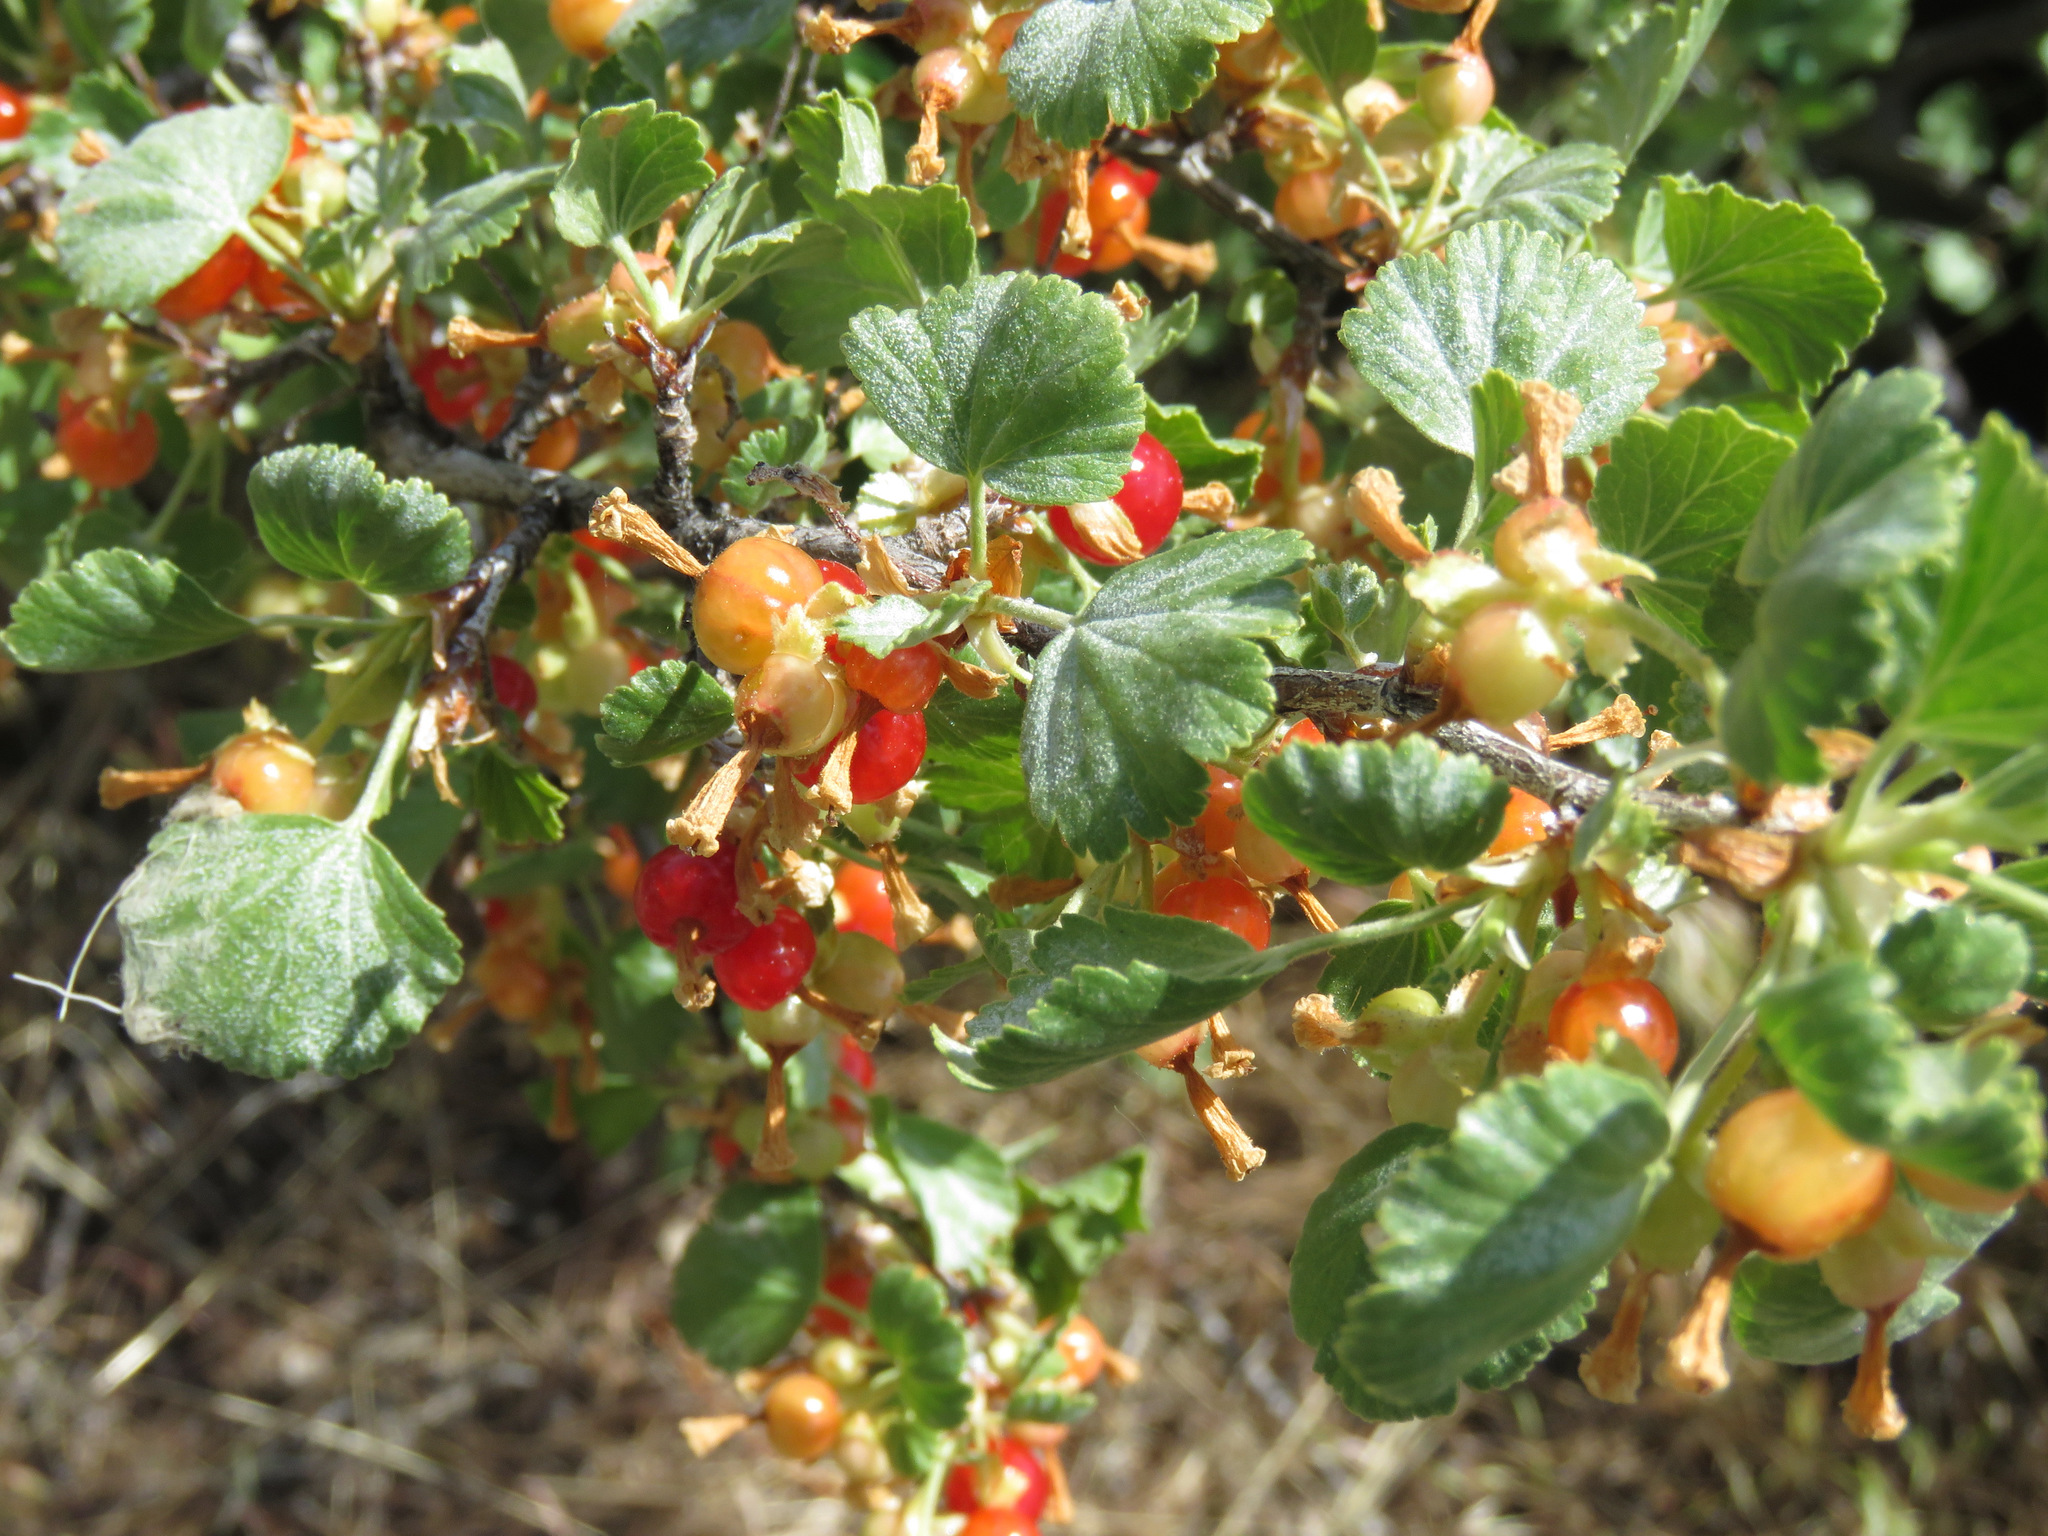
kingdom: Plantae
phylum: Tracheophyta
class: Magnoliopsida
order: Saxifragales
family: Grossulariaceae
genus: Ribes
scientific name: Ribes cereum
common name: Wax currant
